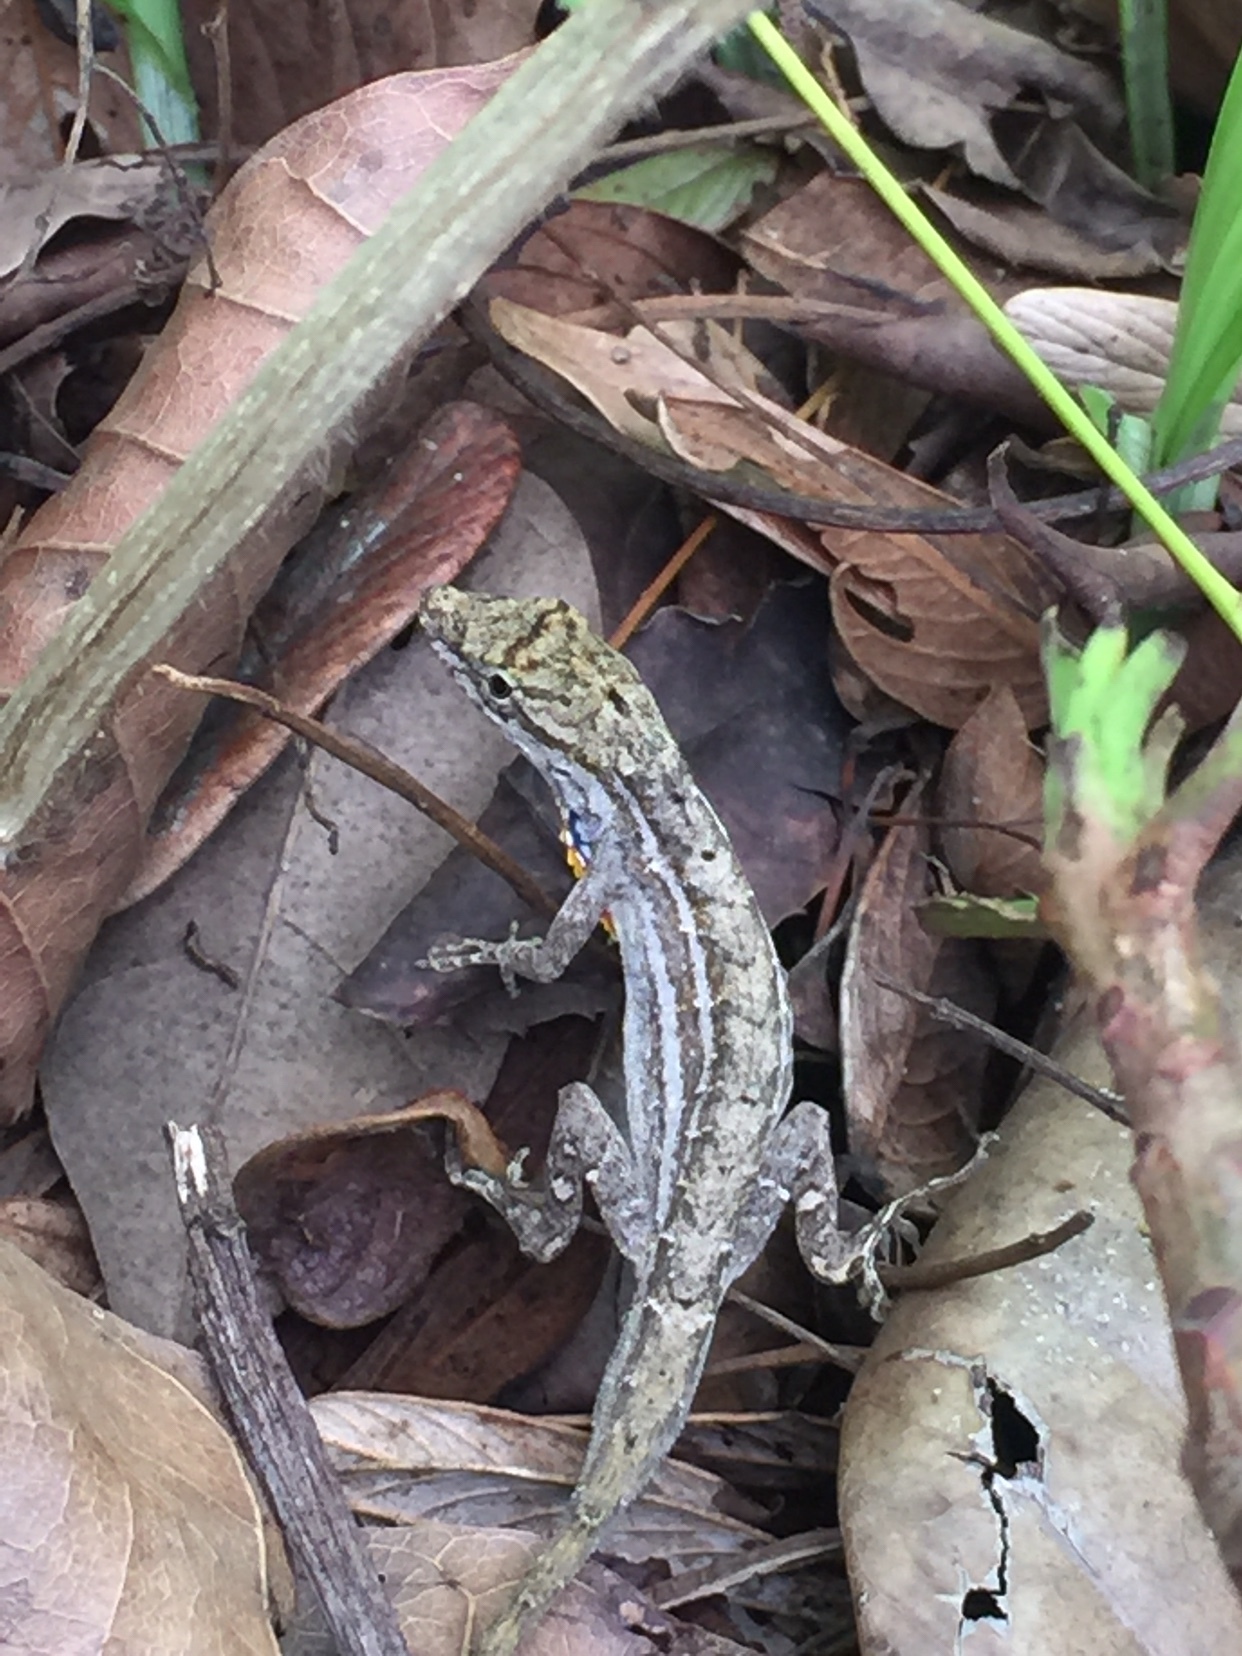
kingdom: Animalia
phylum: Chordata
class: Squamata
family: Dactyloidae
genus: Anolis
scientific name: Anolis wellbornae
